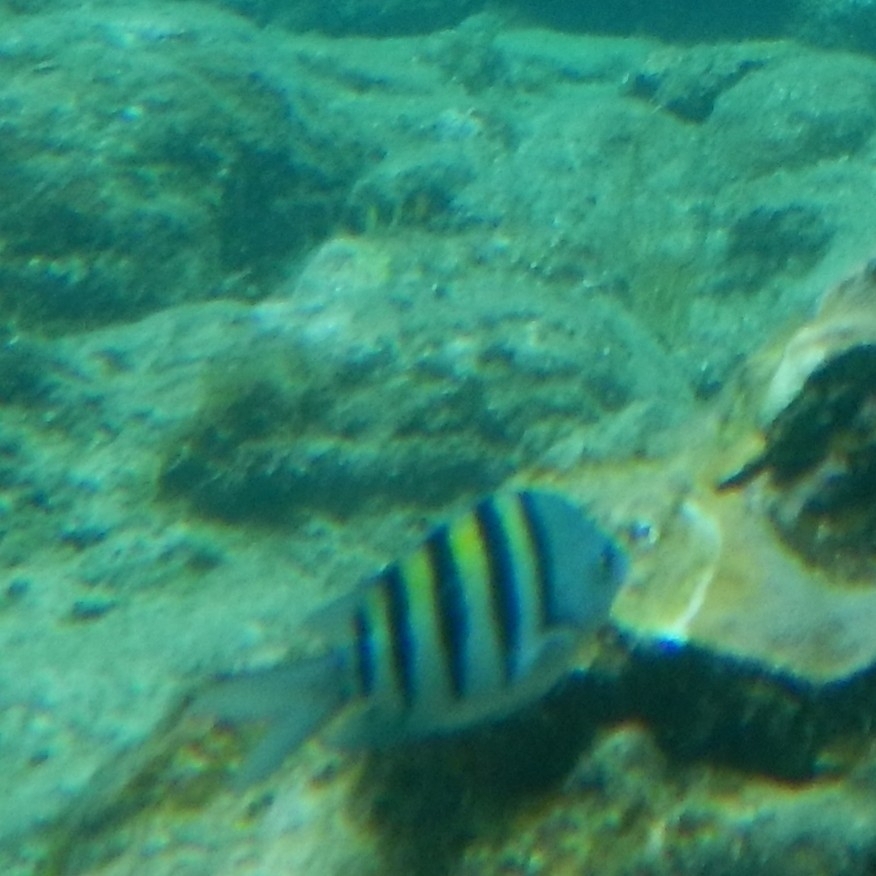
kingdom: Animalia
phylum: Chordata
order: Perciformes
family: Pomacentridae
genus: Abudefduf
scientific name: Abudefduf saxatilis
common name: Sergeant major
